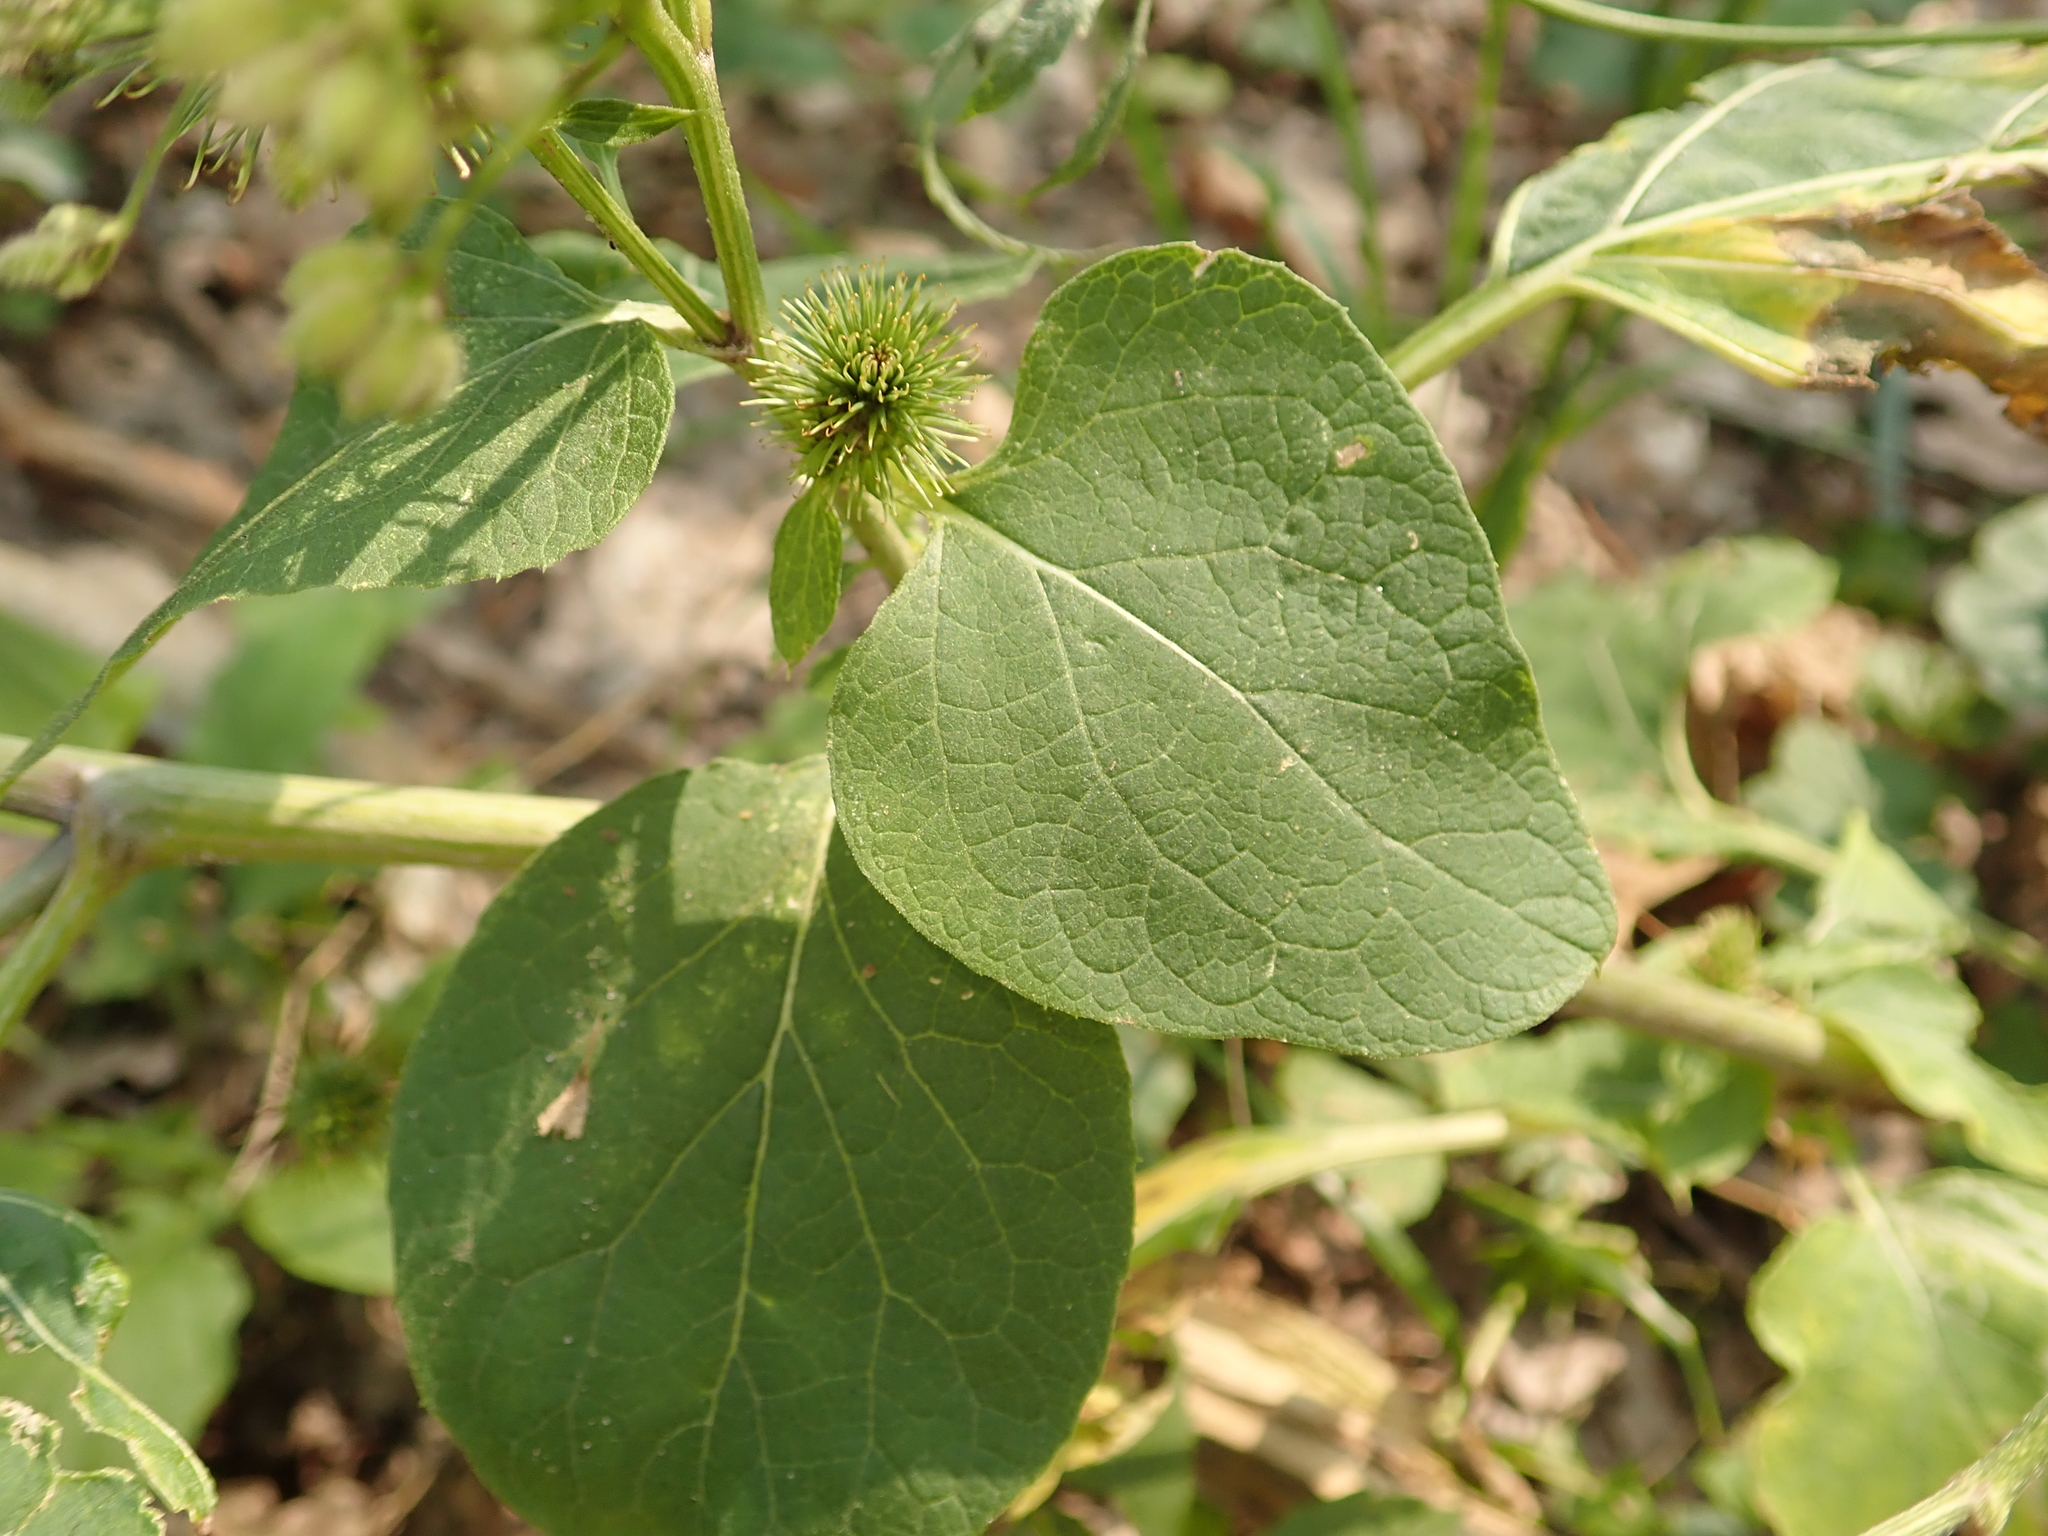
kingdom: Plantae
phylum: Tracheophyta
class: Magnoliopsida
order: Asterales
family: Asteraceae
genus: Arctium
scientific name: Arctium lappa
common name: Greater burdock
